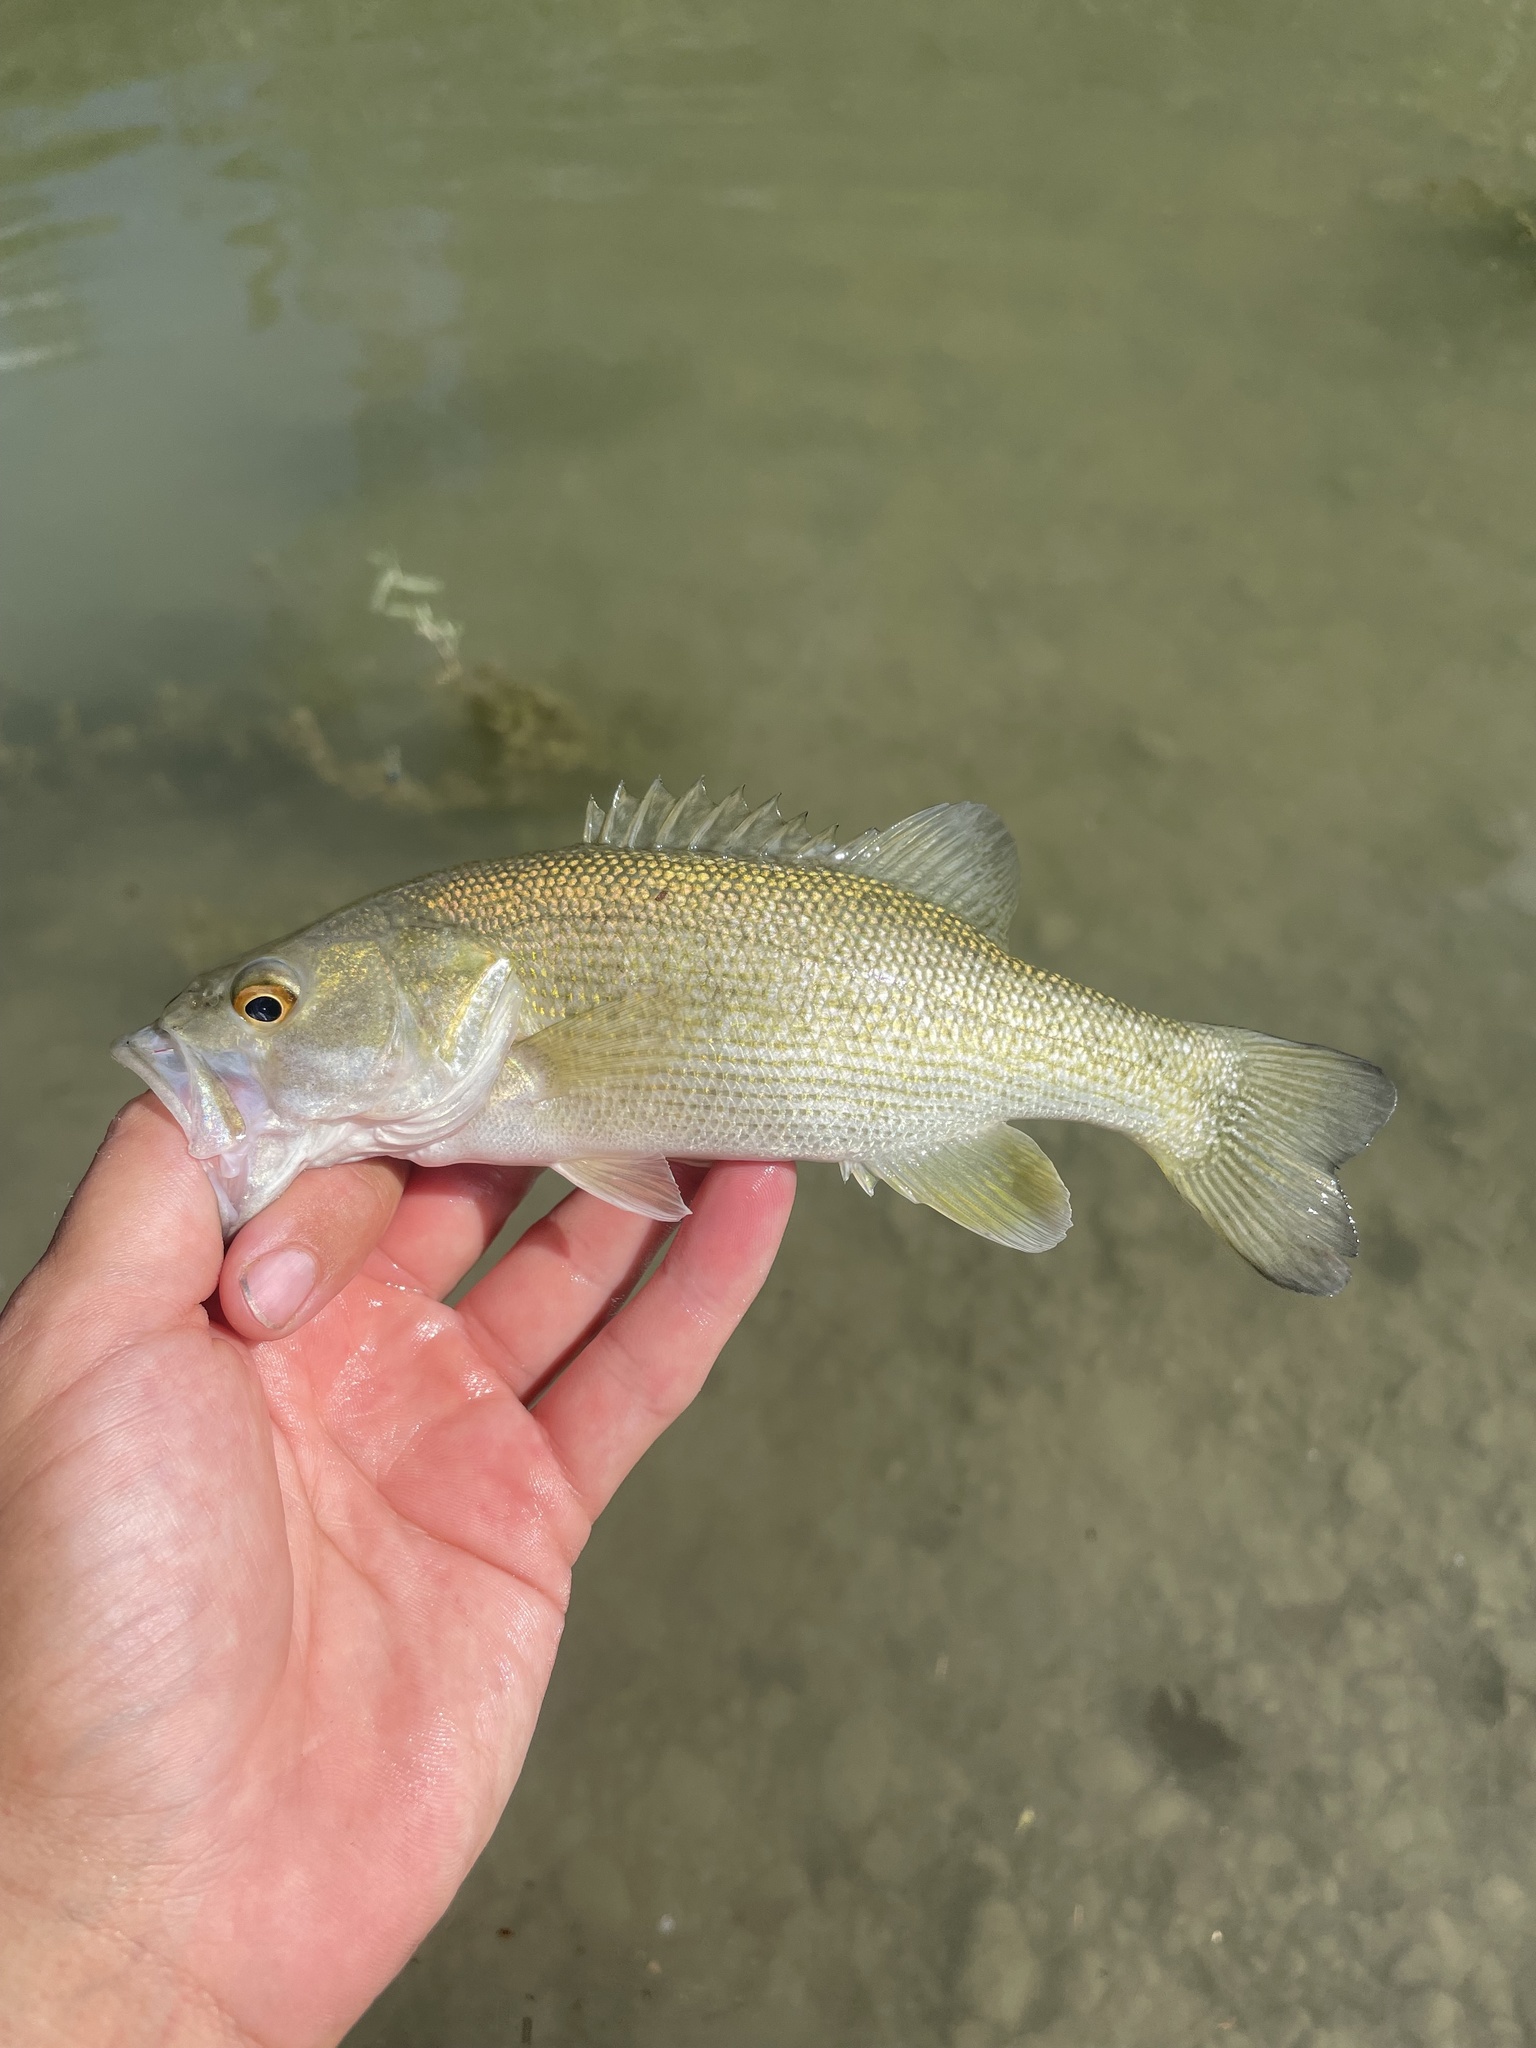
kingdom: Animalia
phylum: Chordata
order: Perciformes
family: Centrarchidae
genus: Micropterus
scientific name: Micropterus treculii
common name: Guadalupe bass
